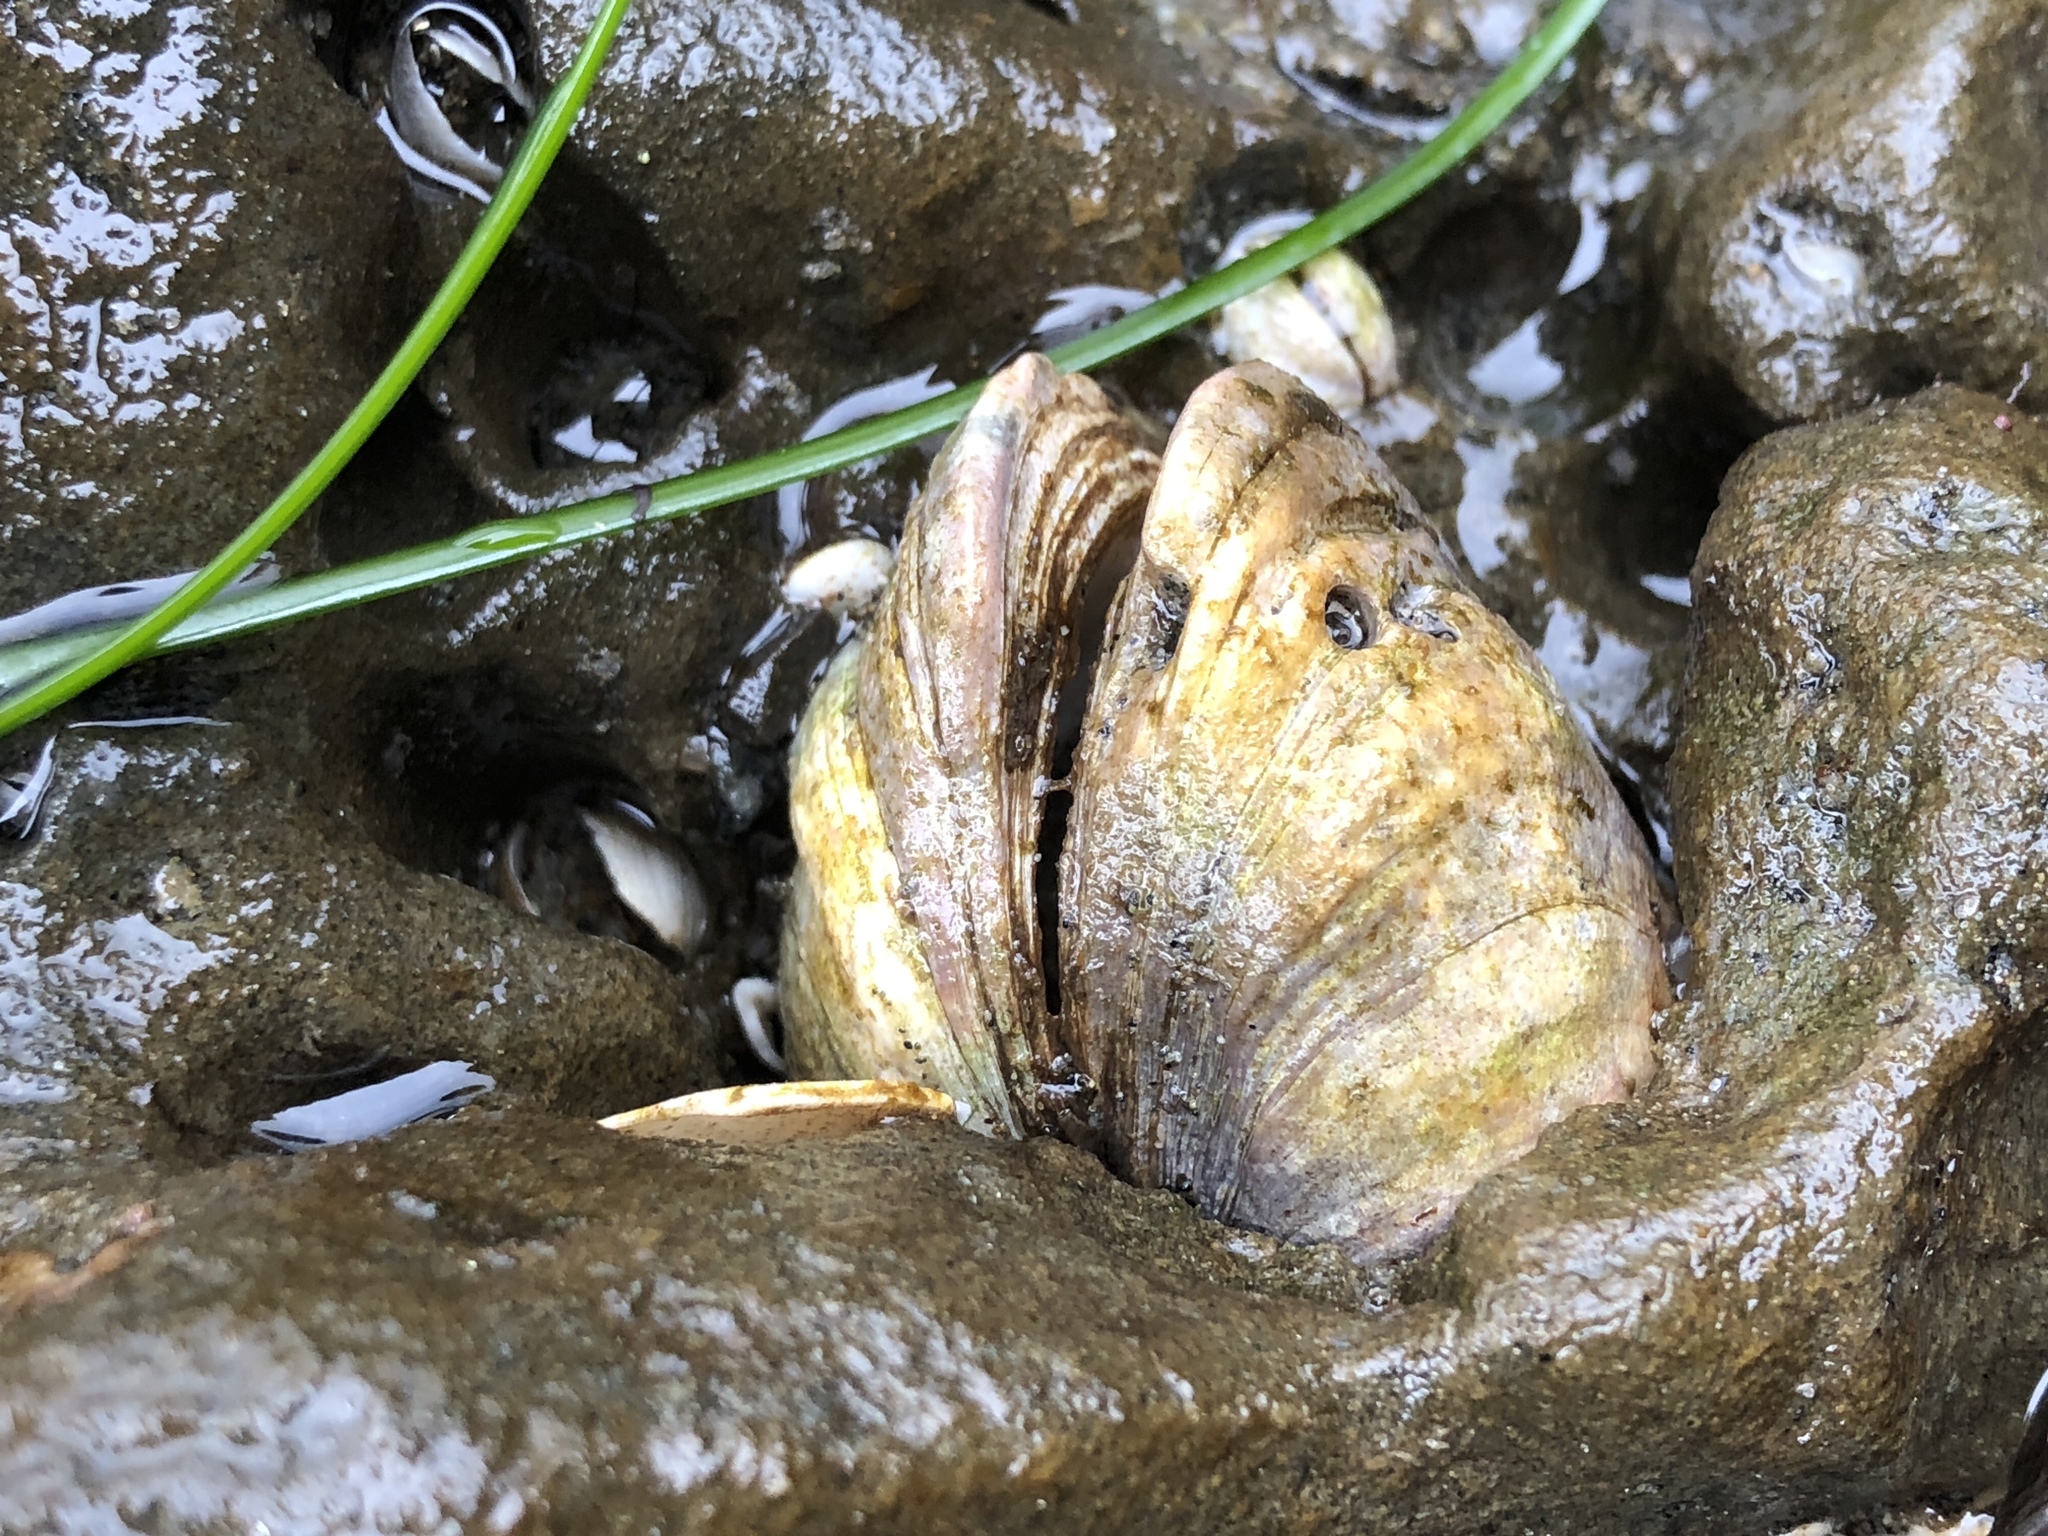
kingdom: Animalia
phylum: Mollusca
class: Bivalvia
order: Venerida
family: Veneridae
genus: Petricola
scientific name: Petricola carditoides
